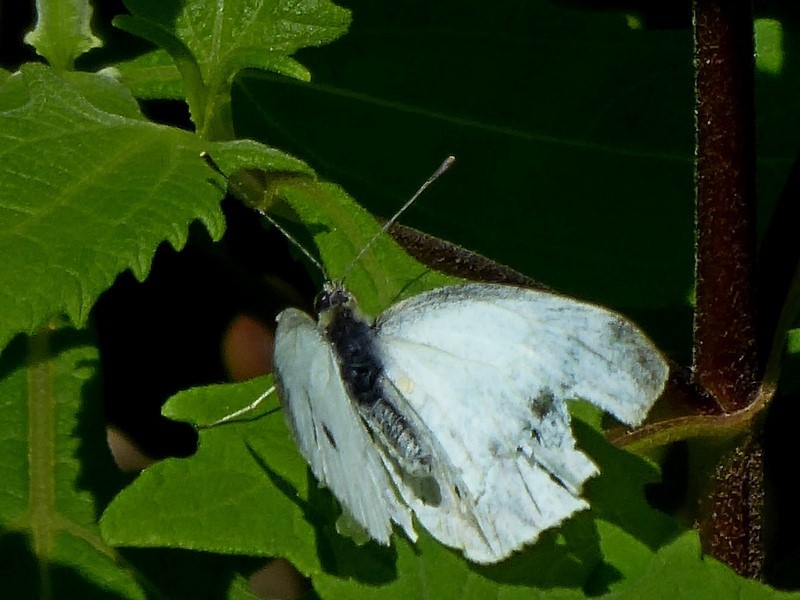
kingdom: Animalia
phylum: Arthropoda
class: Insecta
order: Lepidoptera
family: Pieridae
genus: Pieris
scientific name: Pieris rapae
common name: Small white
